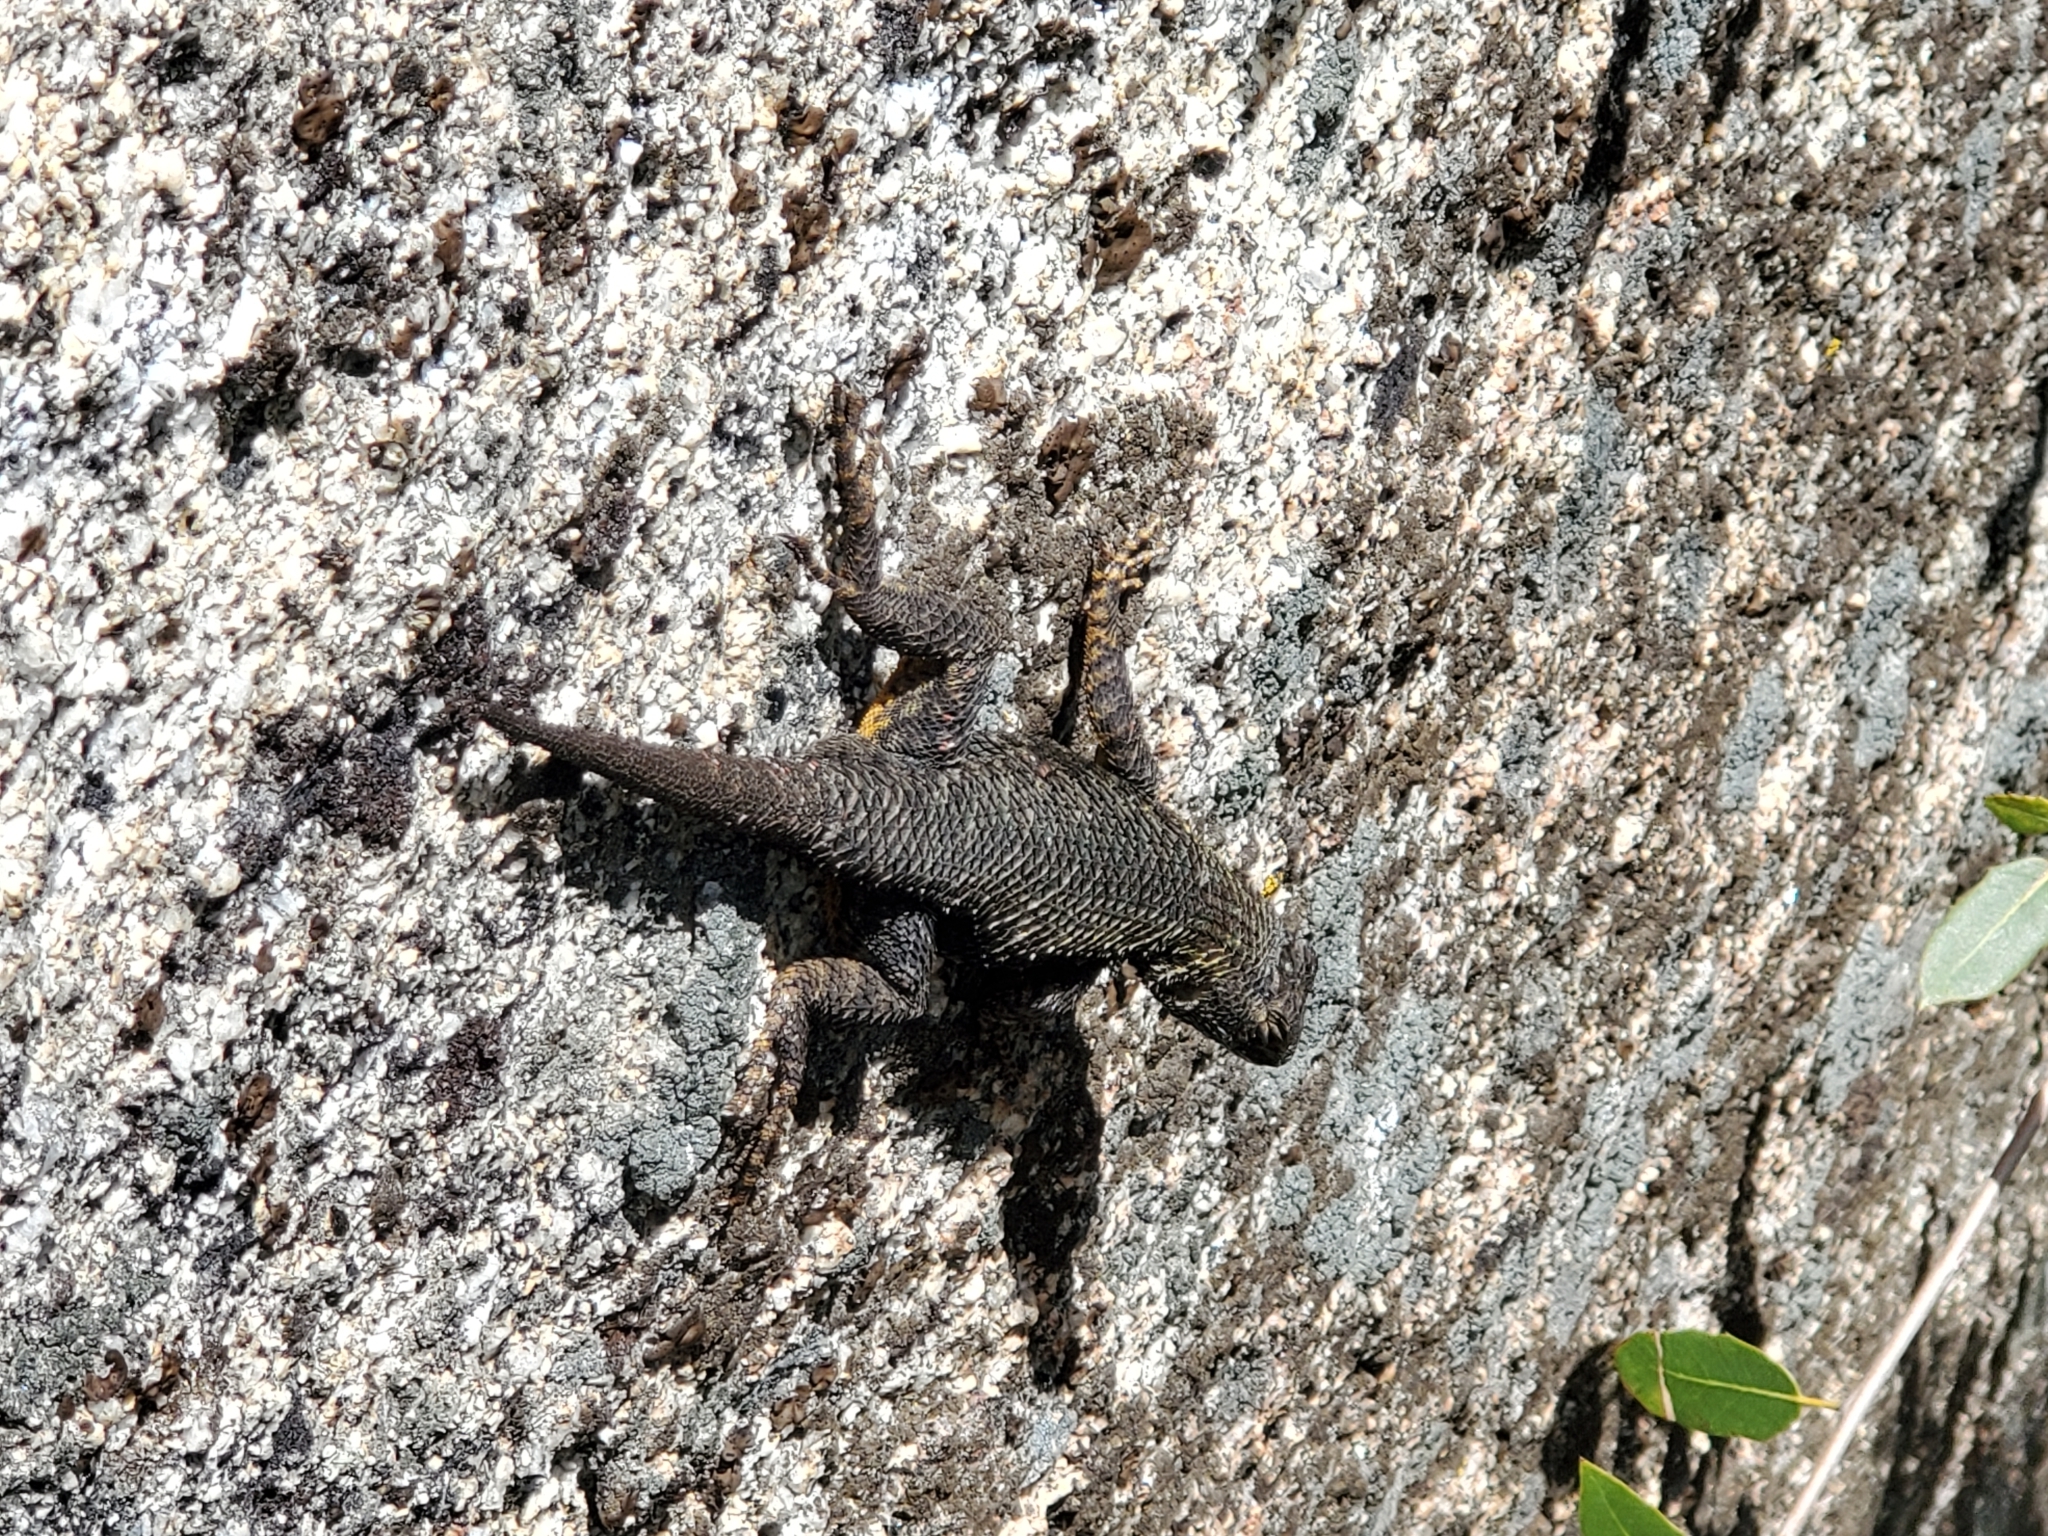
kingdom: Animalia
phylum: Chordata
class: Squamata
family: Phrynosomatidae
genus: Sceloporus
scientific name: Sceloporus occidentalis
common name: Western fence lizard
